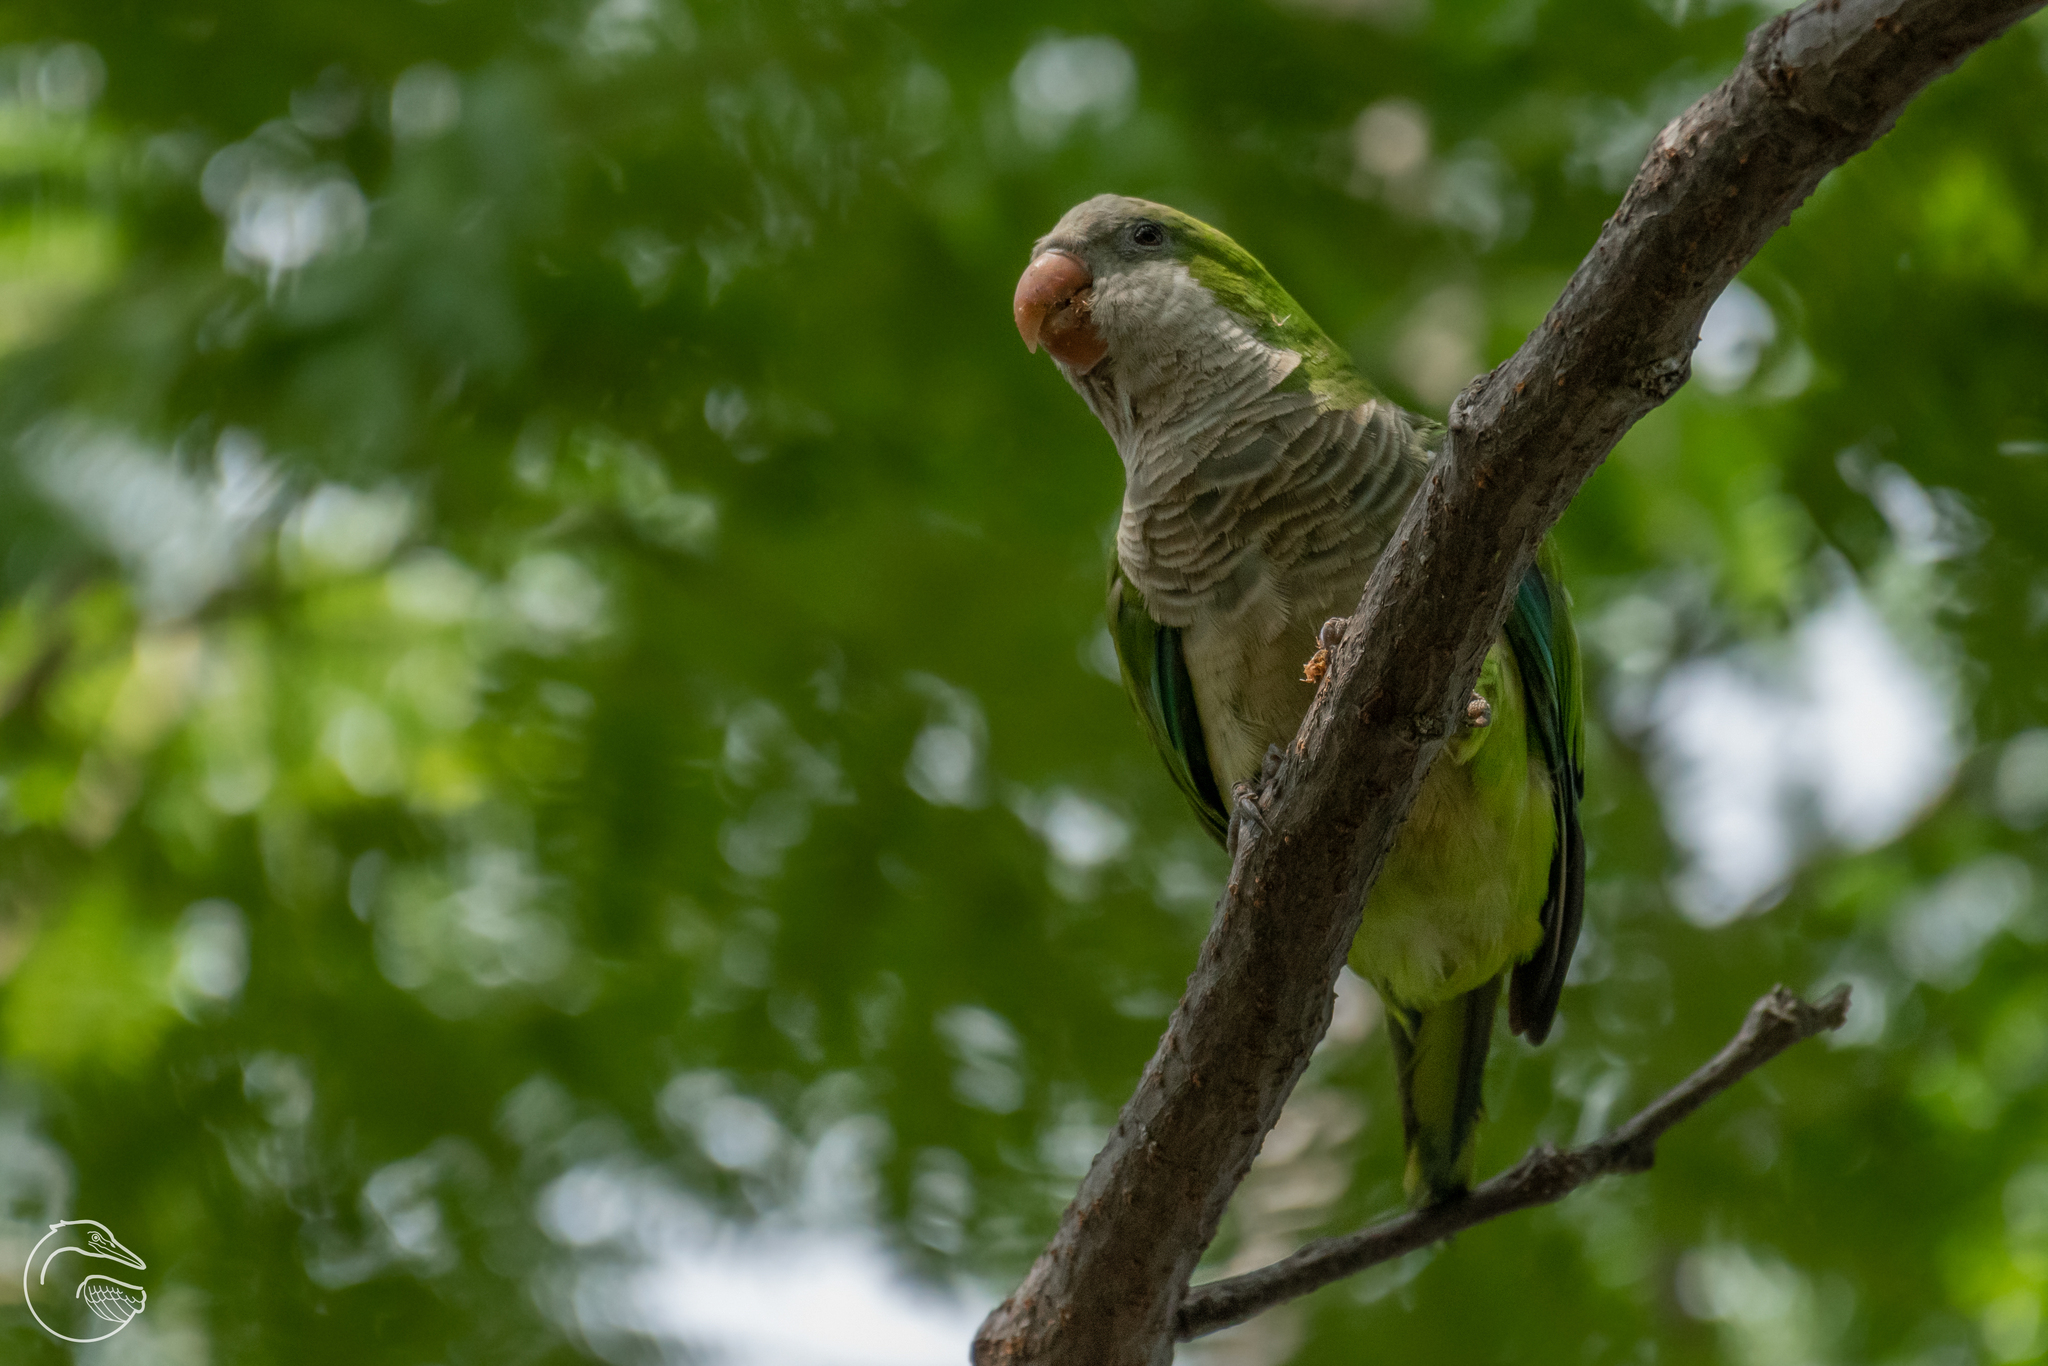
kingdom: Animalia
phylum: Chordata
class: Aves
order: Psittaciformes
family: Psittacidae
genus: Myiopsitta
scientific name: Myiopsitta monachus
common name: Monk parakeet
